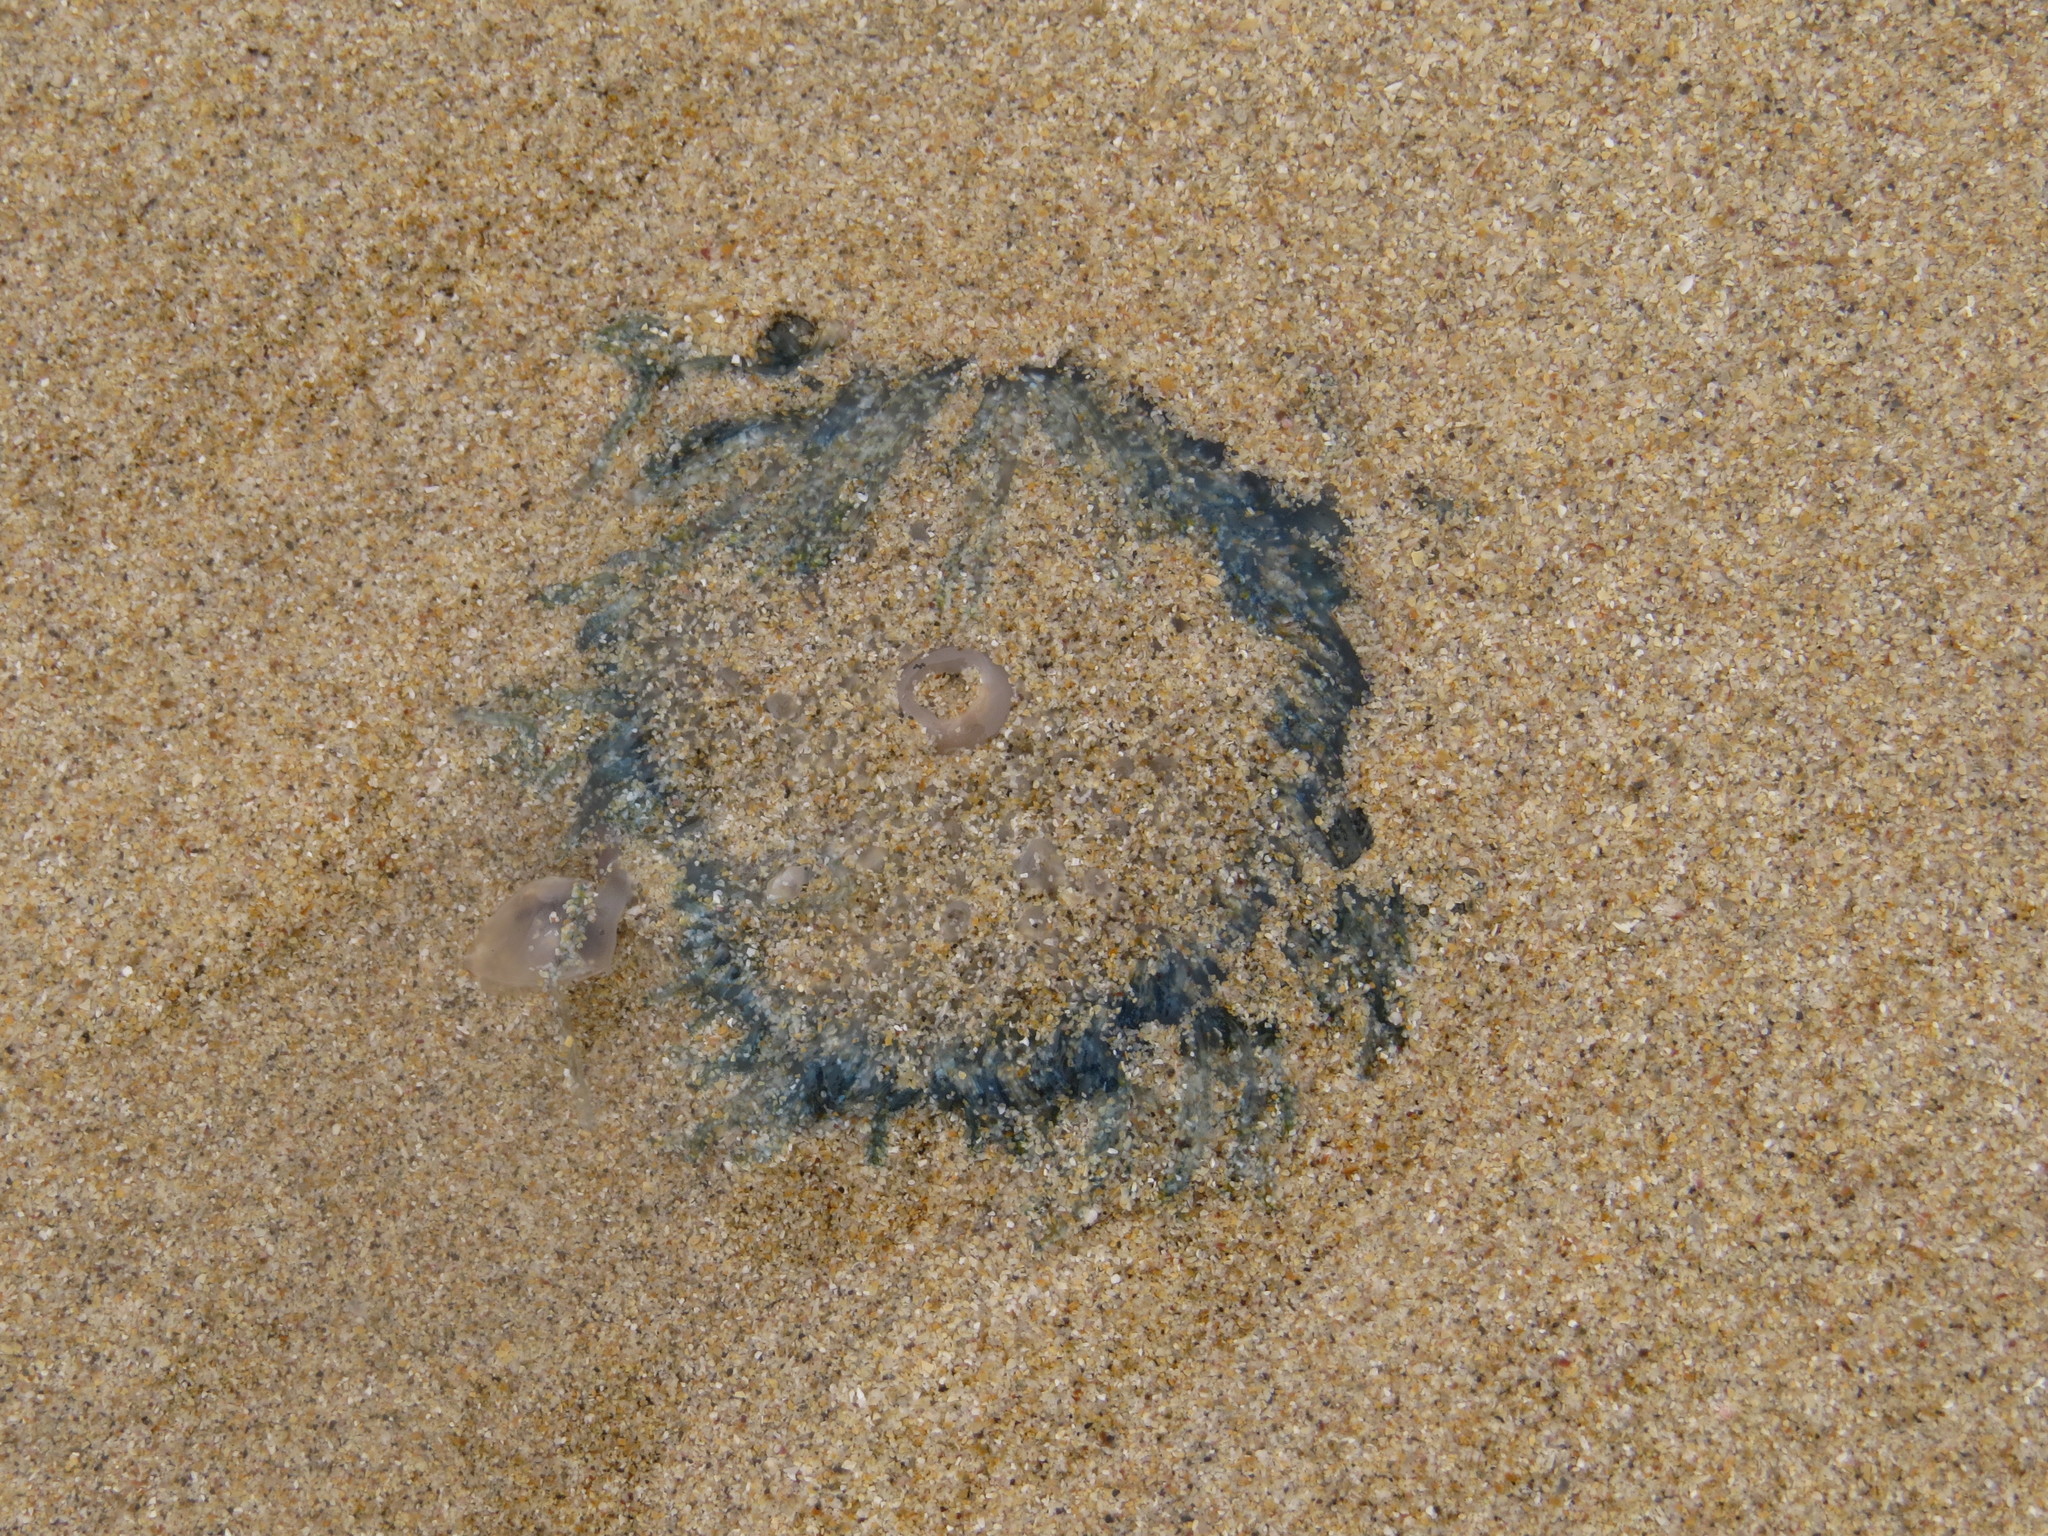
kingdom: Animalia
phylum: Cnidaria
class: Hydrozoa
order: Anthoathecata
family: Porpitidae
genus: Porpita
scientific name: Porpita porpita
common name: Blue button
